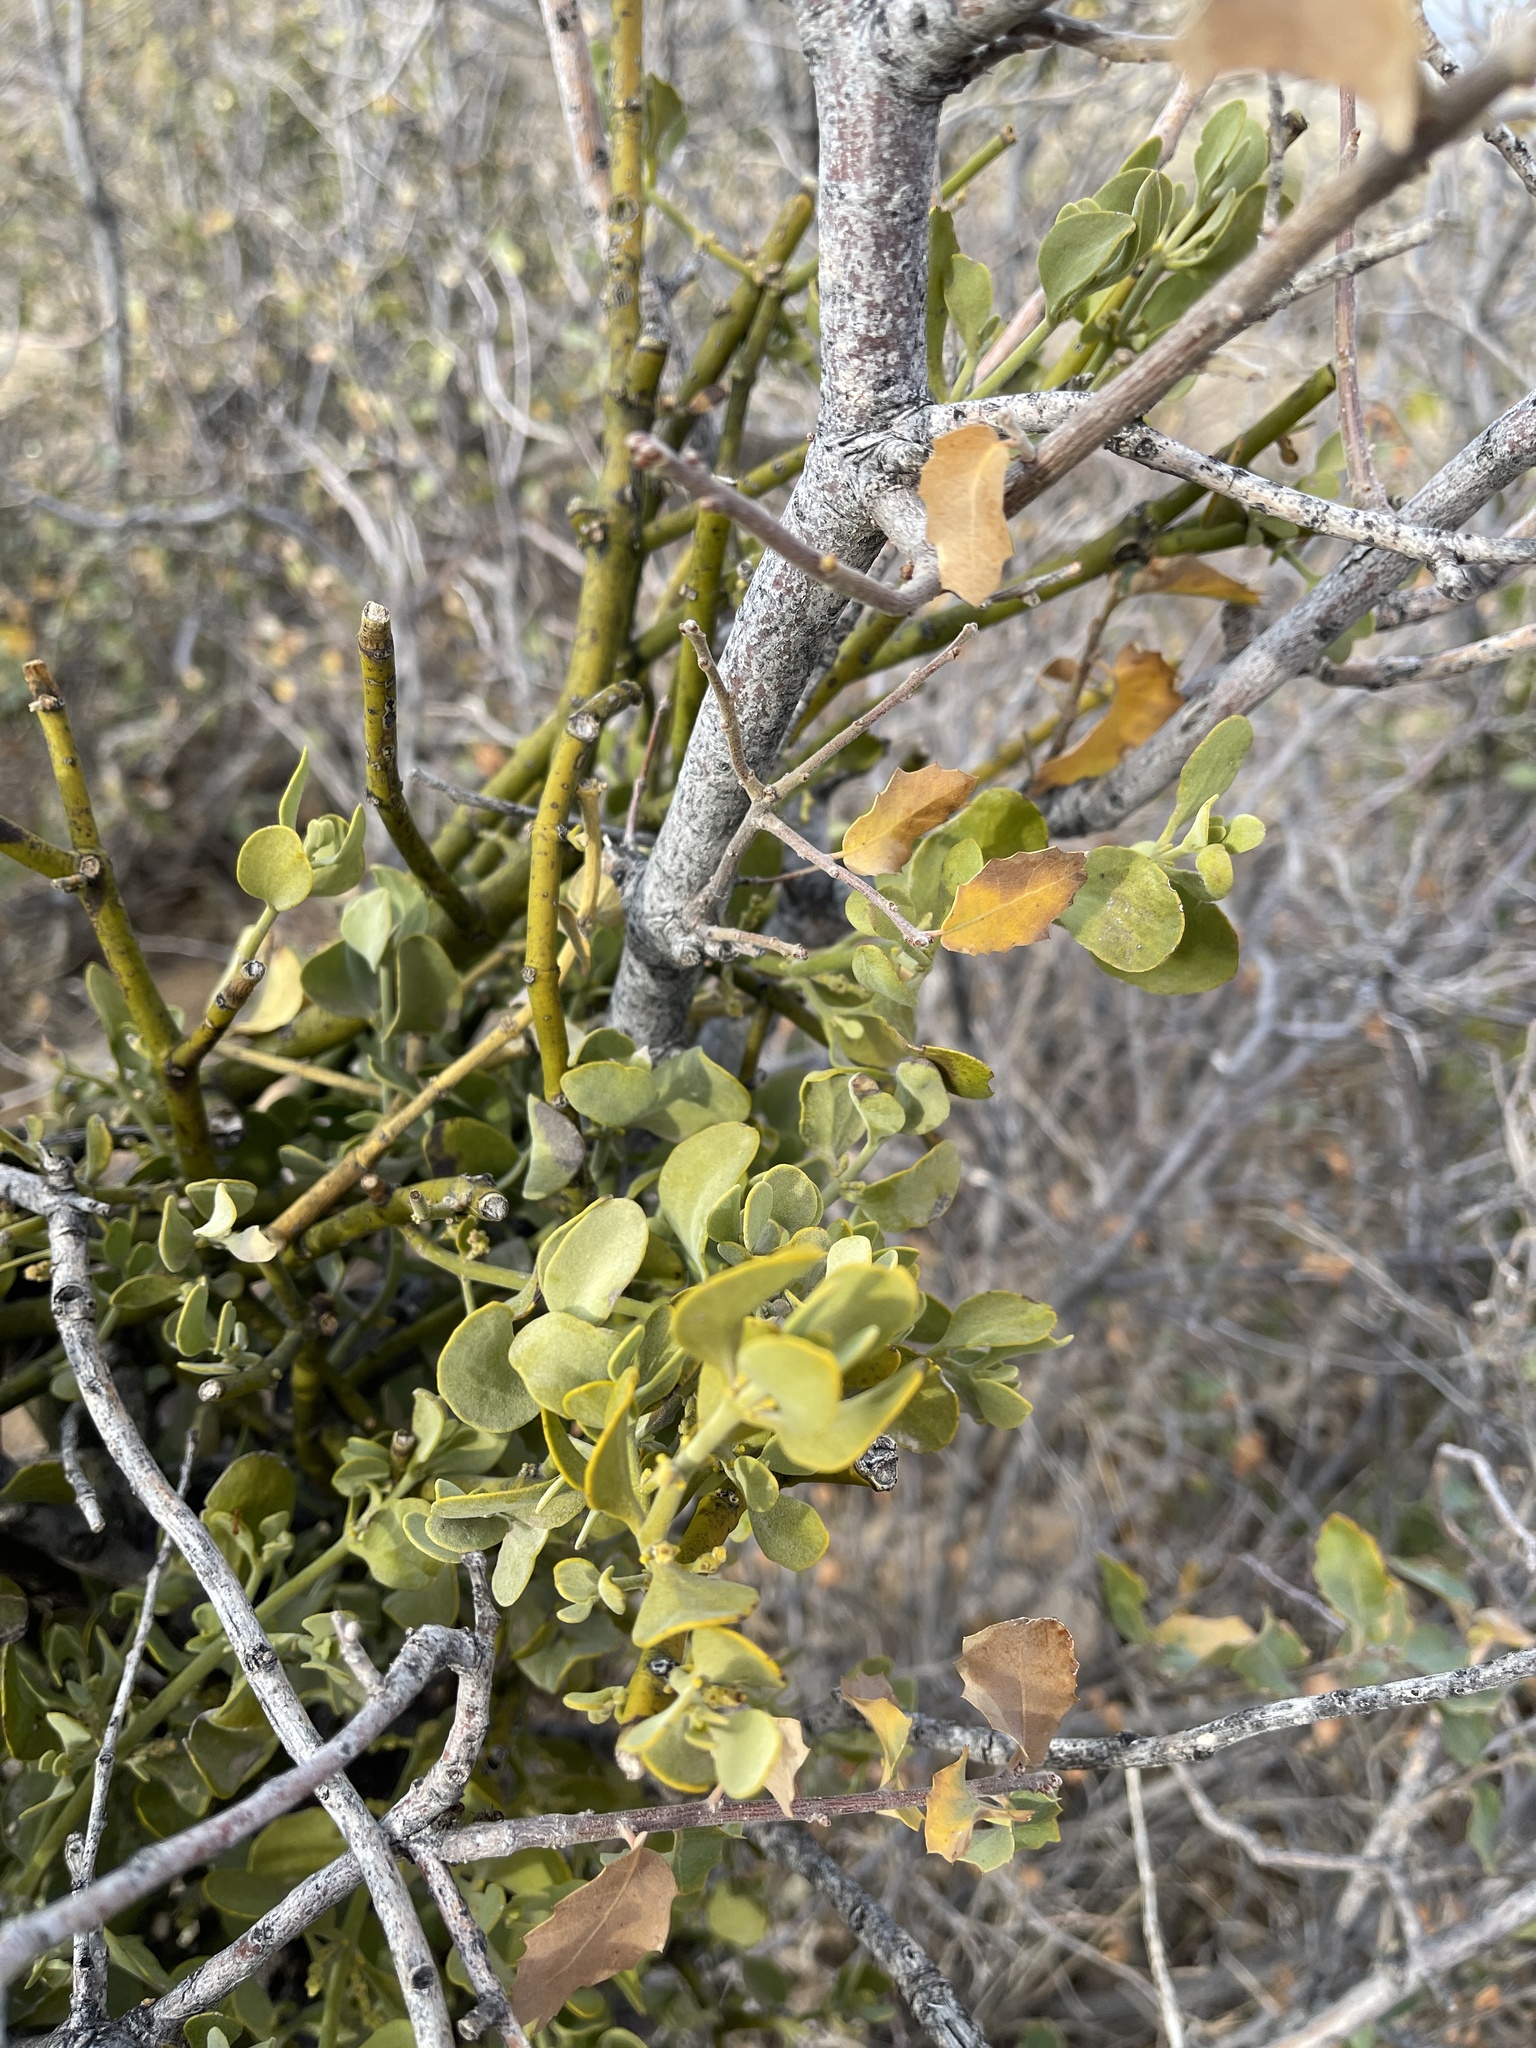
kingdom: Plantae
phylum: Tracheophyta
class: Magnoliopsida
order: Santalales
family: Viscaceae
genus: Phoradendron
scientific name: Phoradendron coryae
